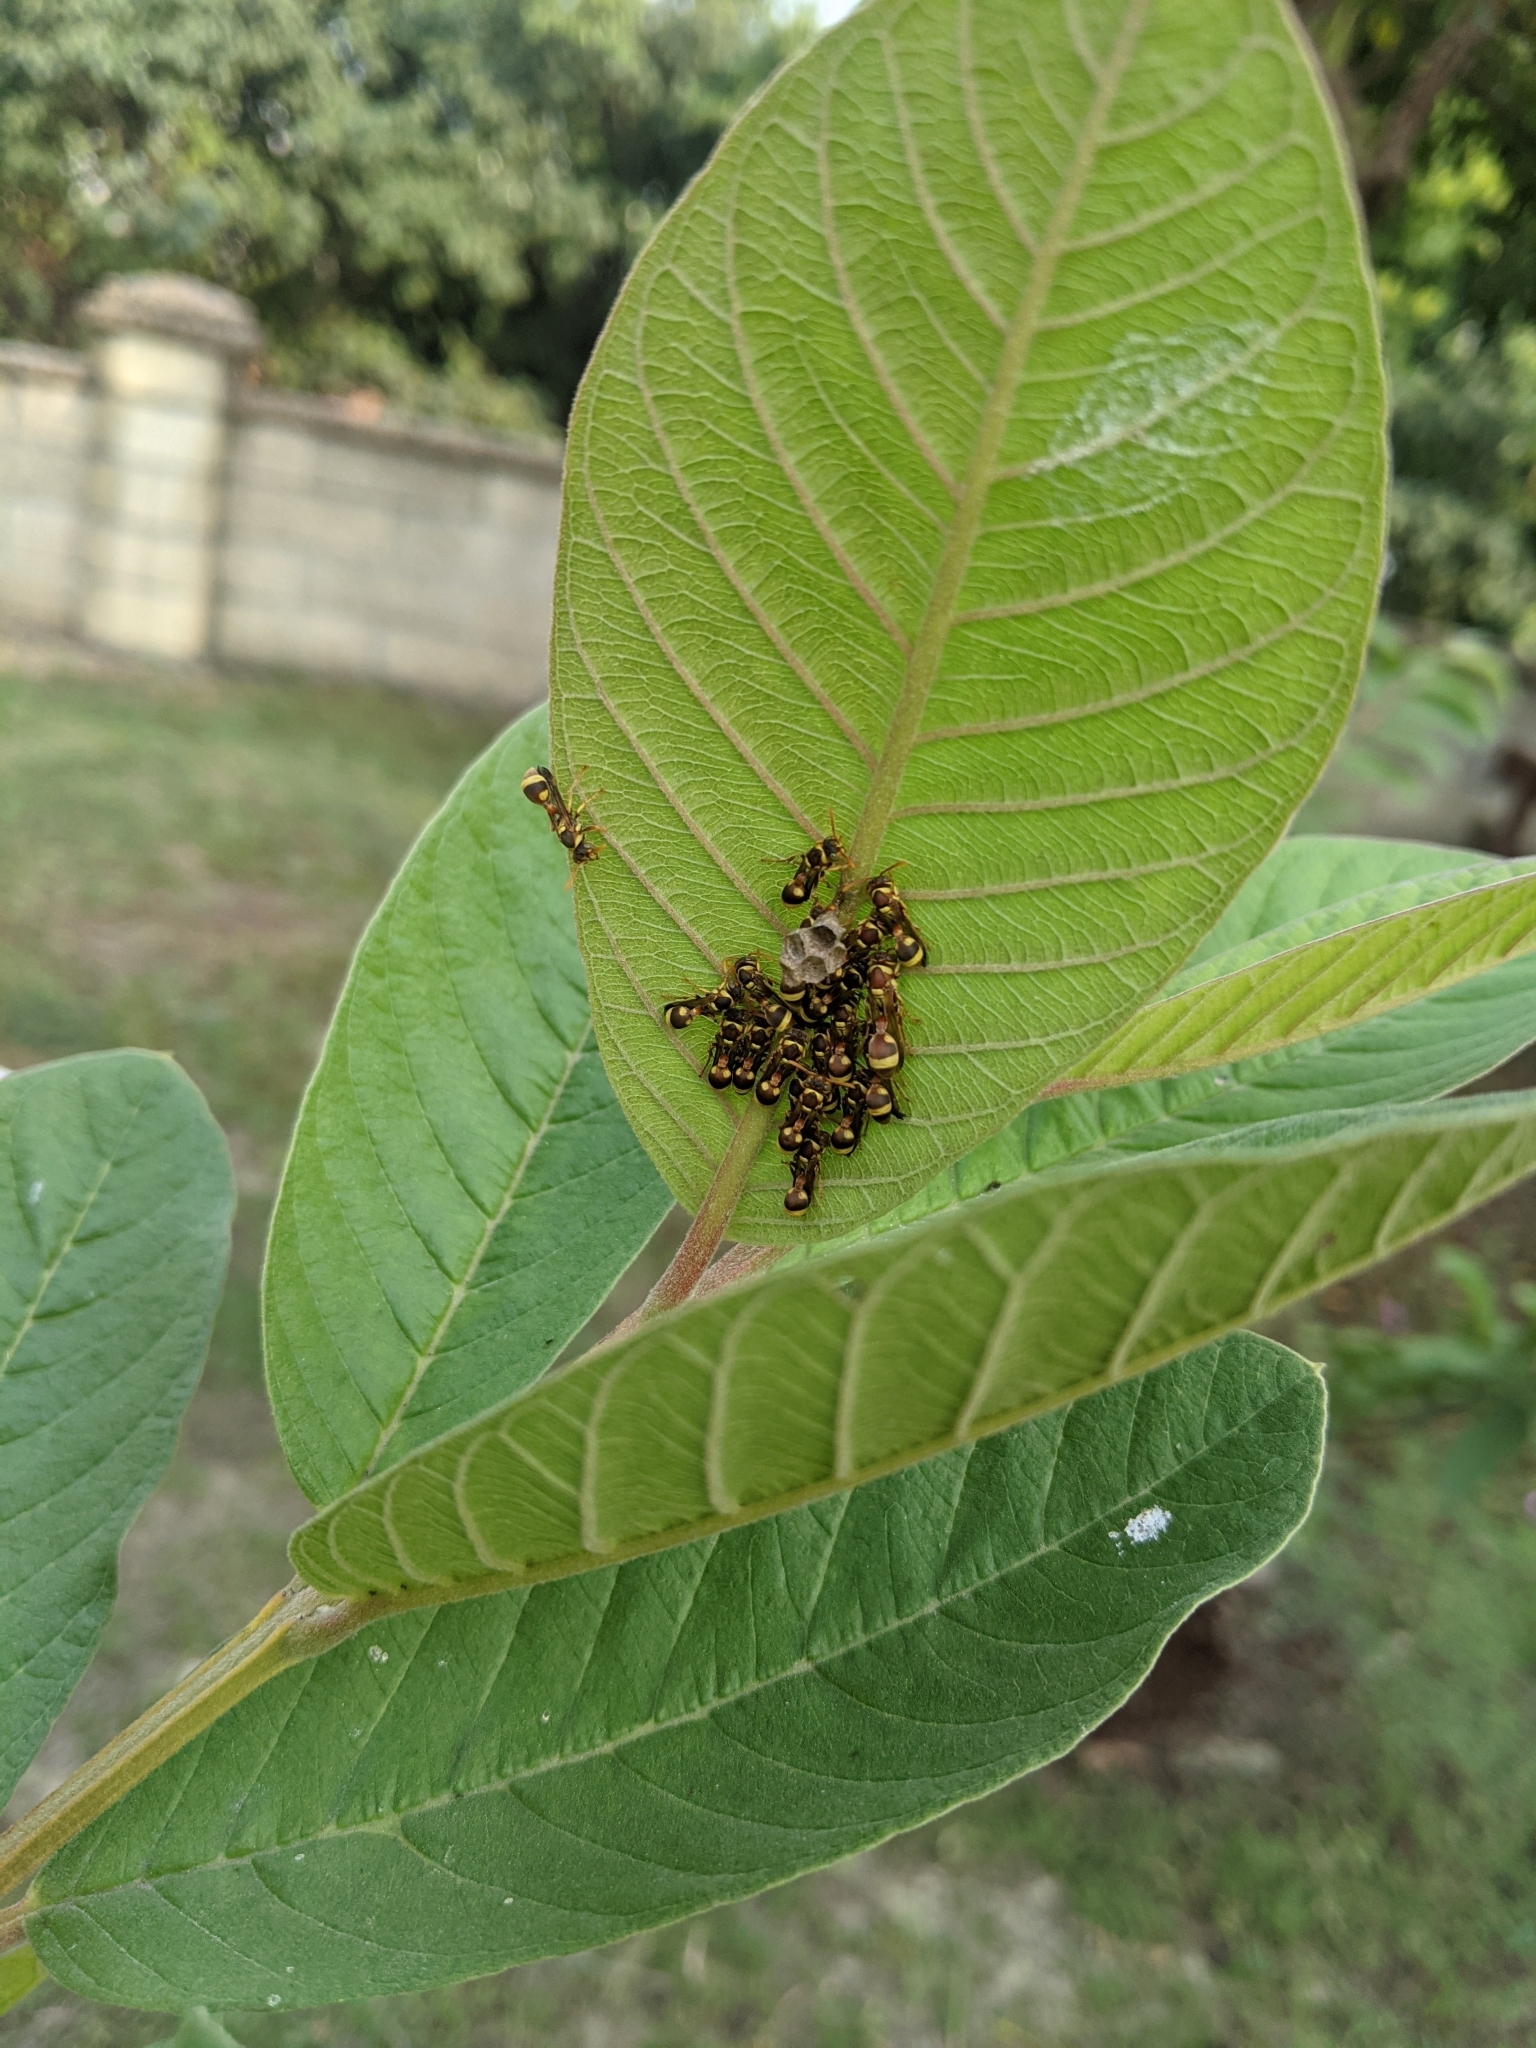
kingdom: Animalia
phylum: Arthropoda
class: Insecta
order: Hymenoptera
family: Vespidae
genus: Ropalidia
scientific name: Ropalidia fasciata
